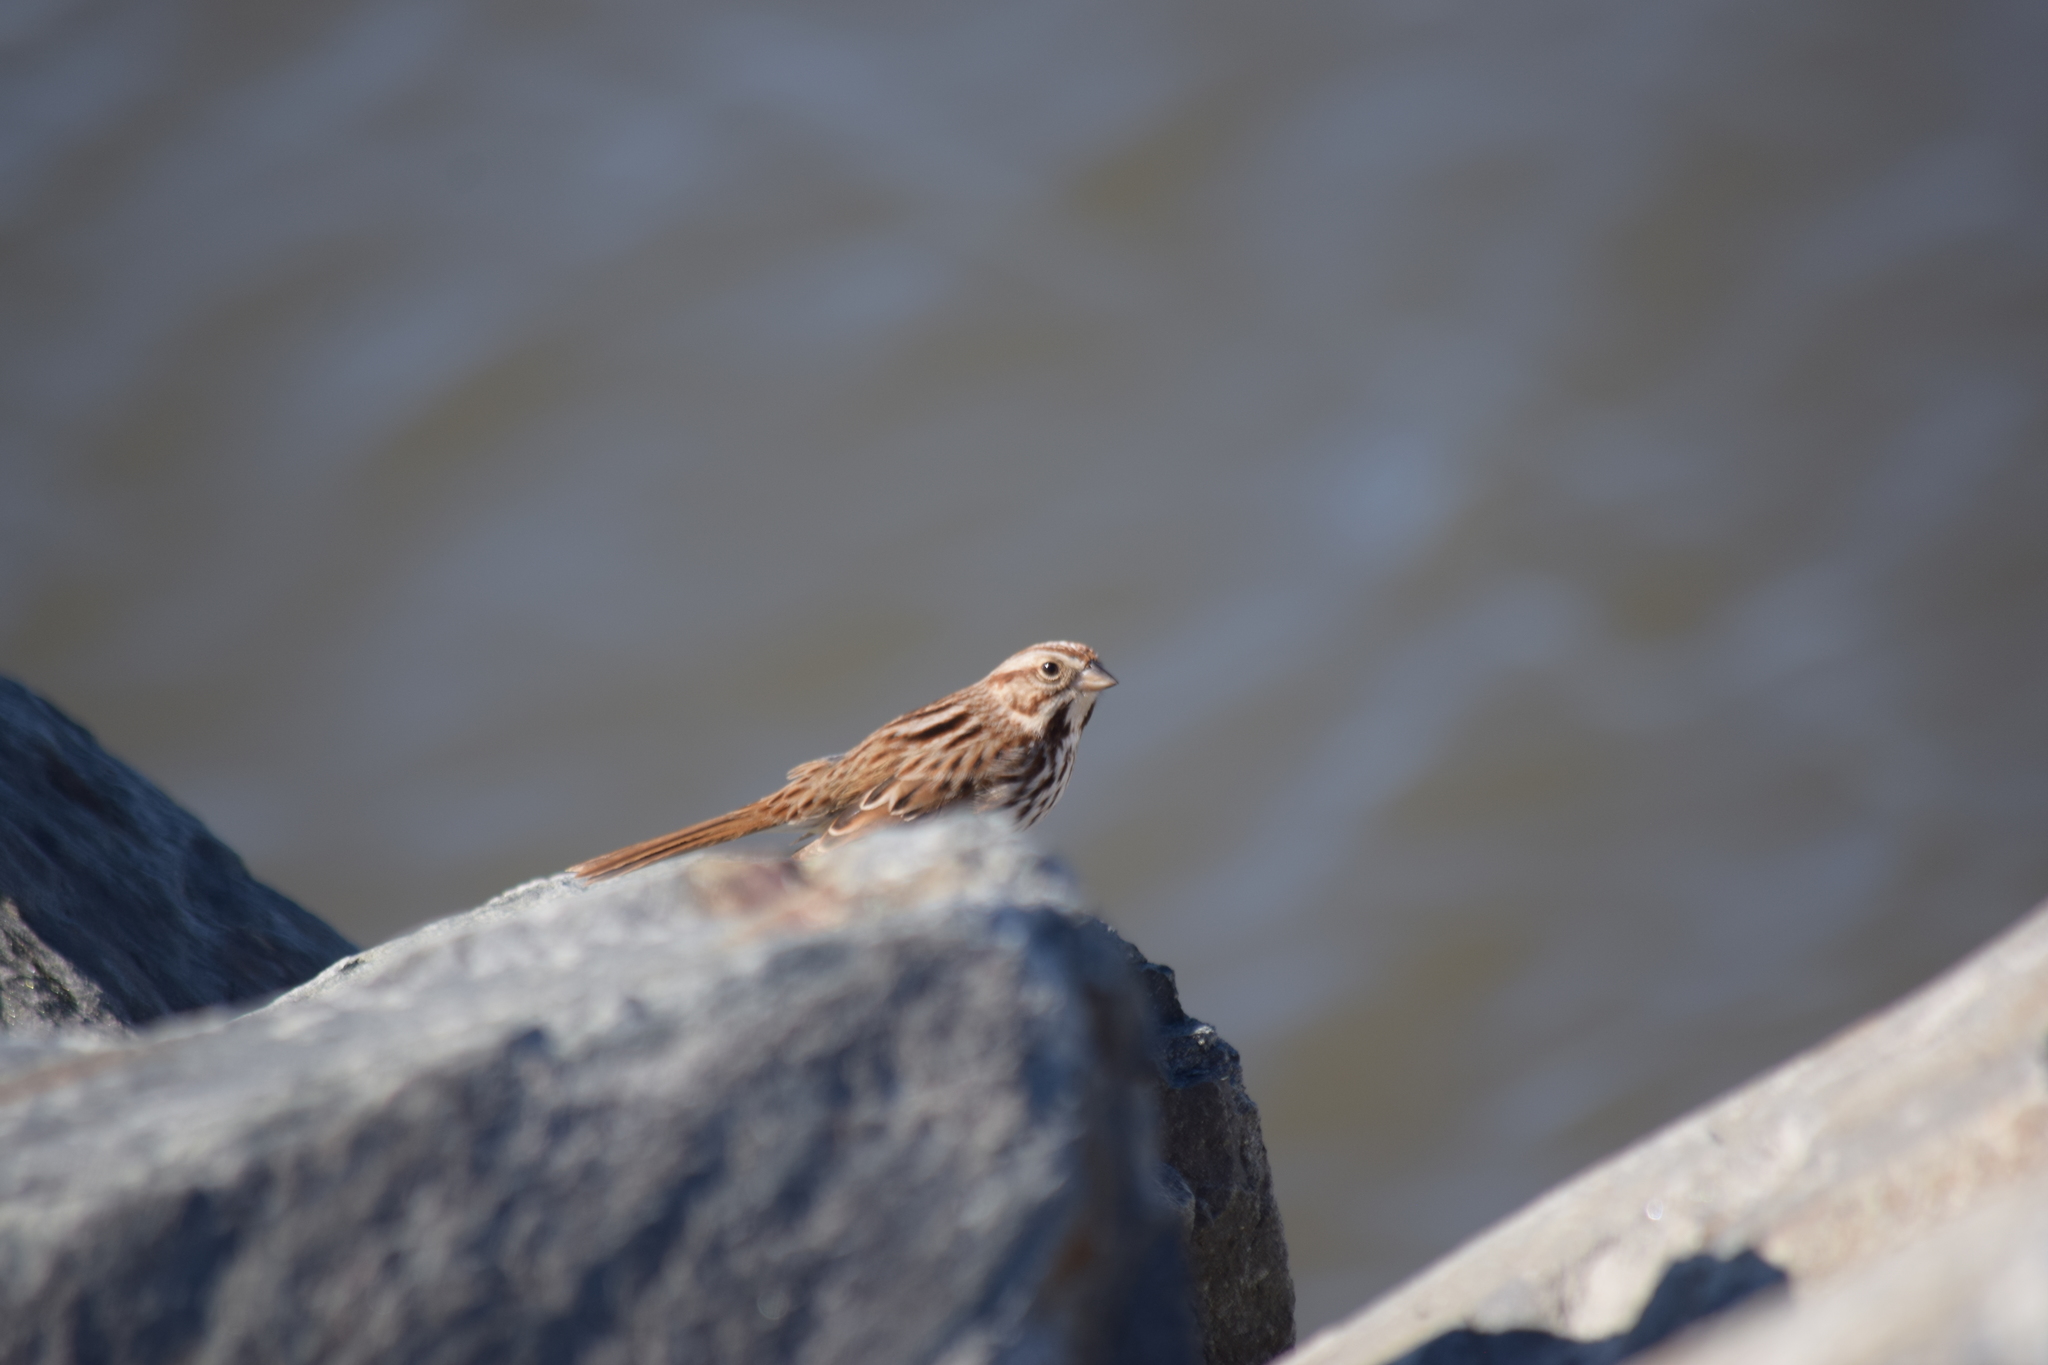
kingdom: Animalia
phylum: Chordata
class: Aves
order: Passeriformes
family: Passerellidae
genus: Melospiza
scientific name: Melospiza melodia
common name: Song sparrow
